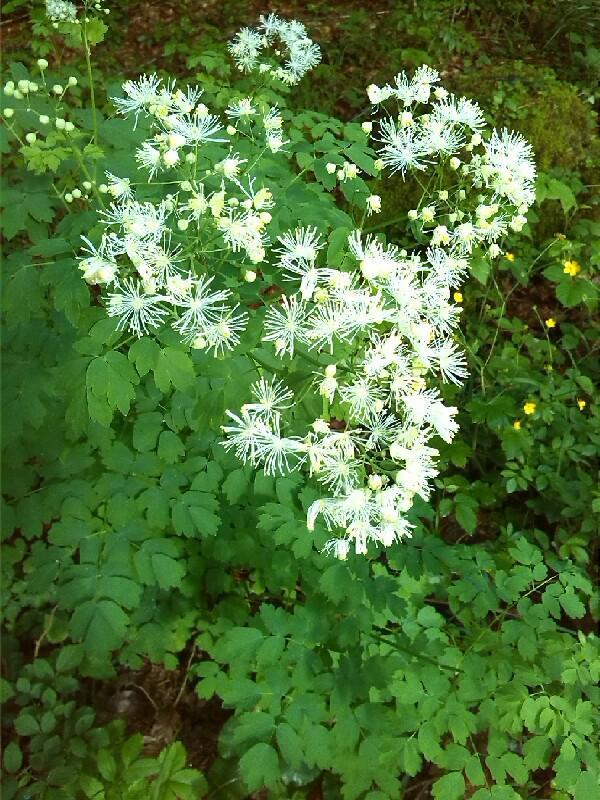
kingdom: Plantae
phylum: Tracheophyta
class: Magnoliopsida
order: Ranunculales
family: Ranunculaceae
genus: Thalictrum
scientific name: Thalictrum aquilegiifolium
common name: French meadow-rue
